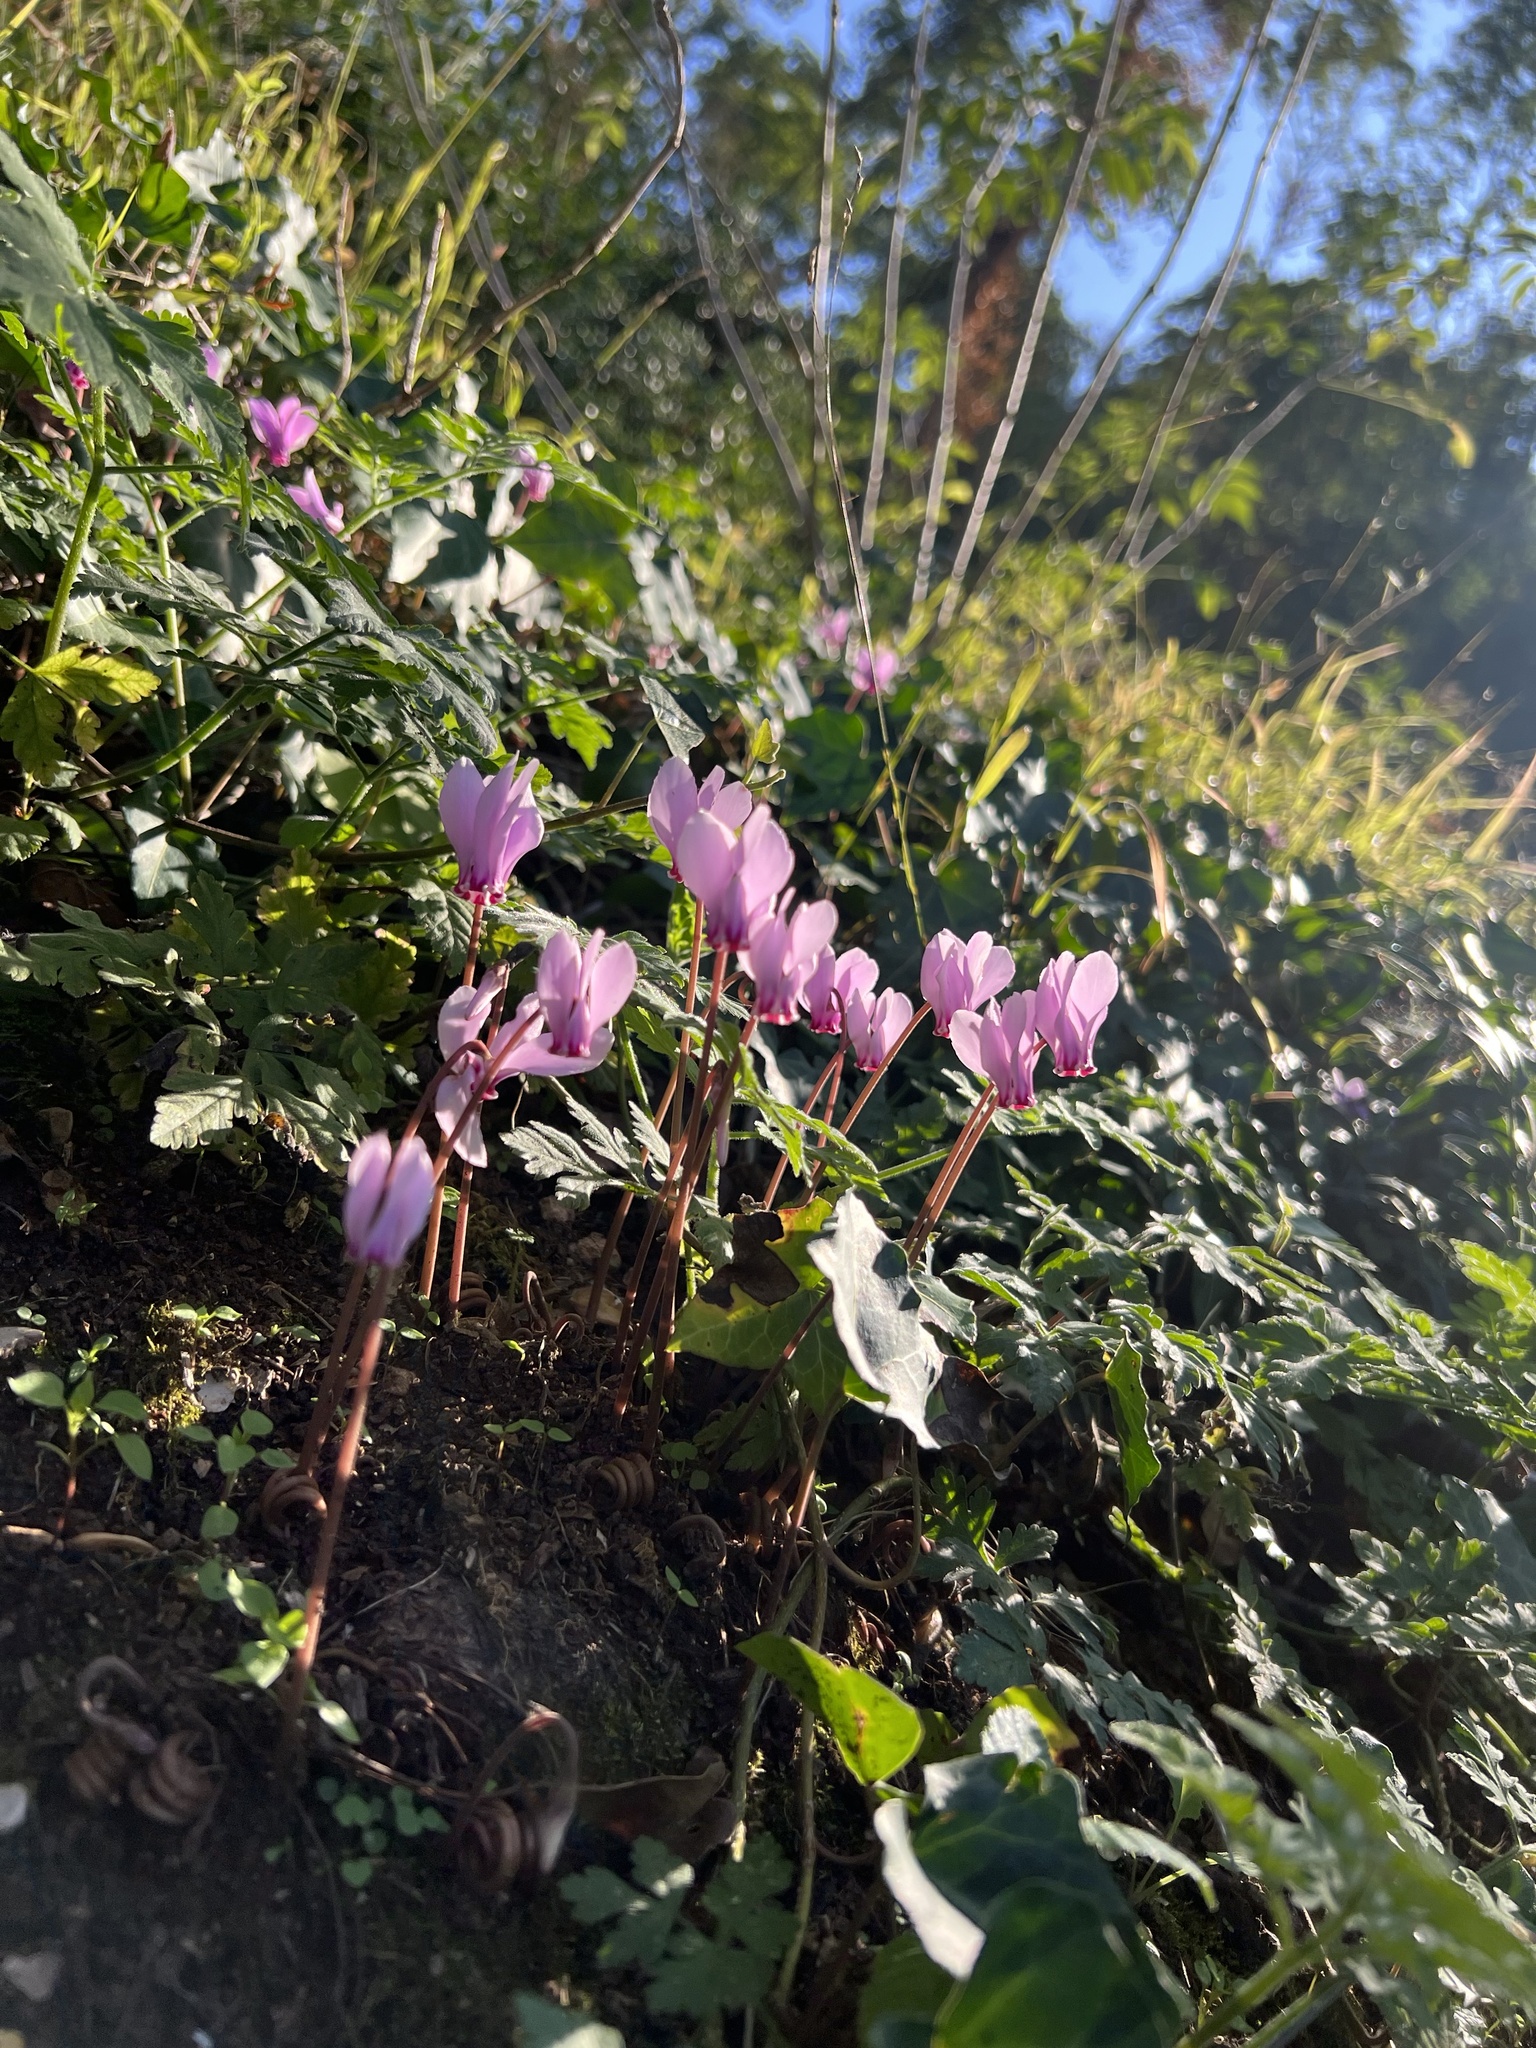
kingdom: Plantae
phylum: Tracheophyta
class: Magnoliopsida
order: Ericales
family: Primulaceae
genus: Cyclamen
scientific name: Cyclamen hederifolium
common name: Sowbread
